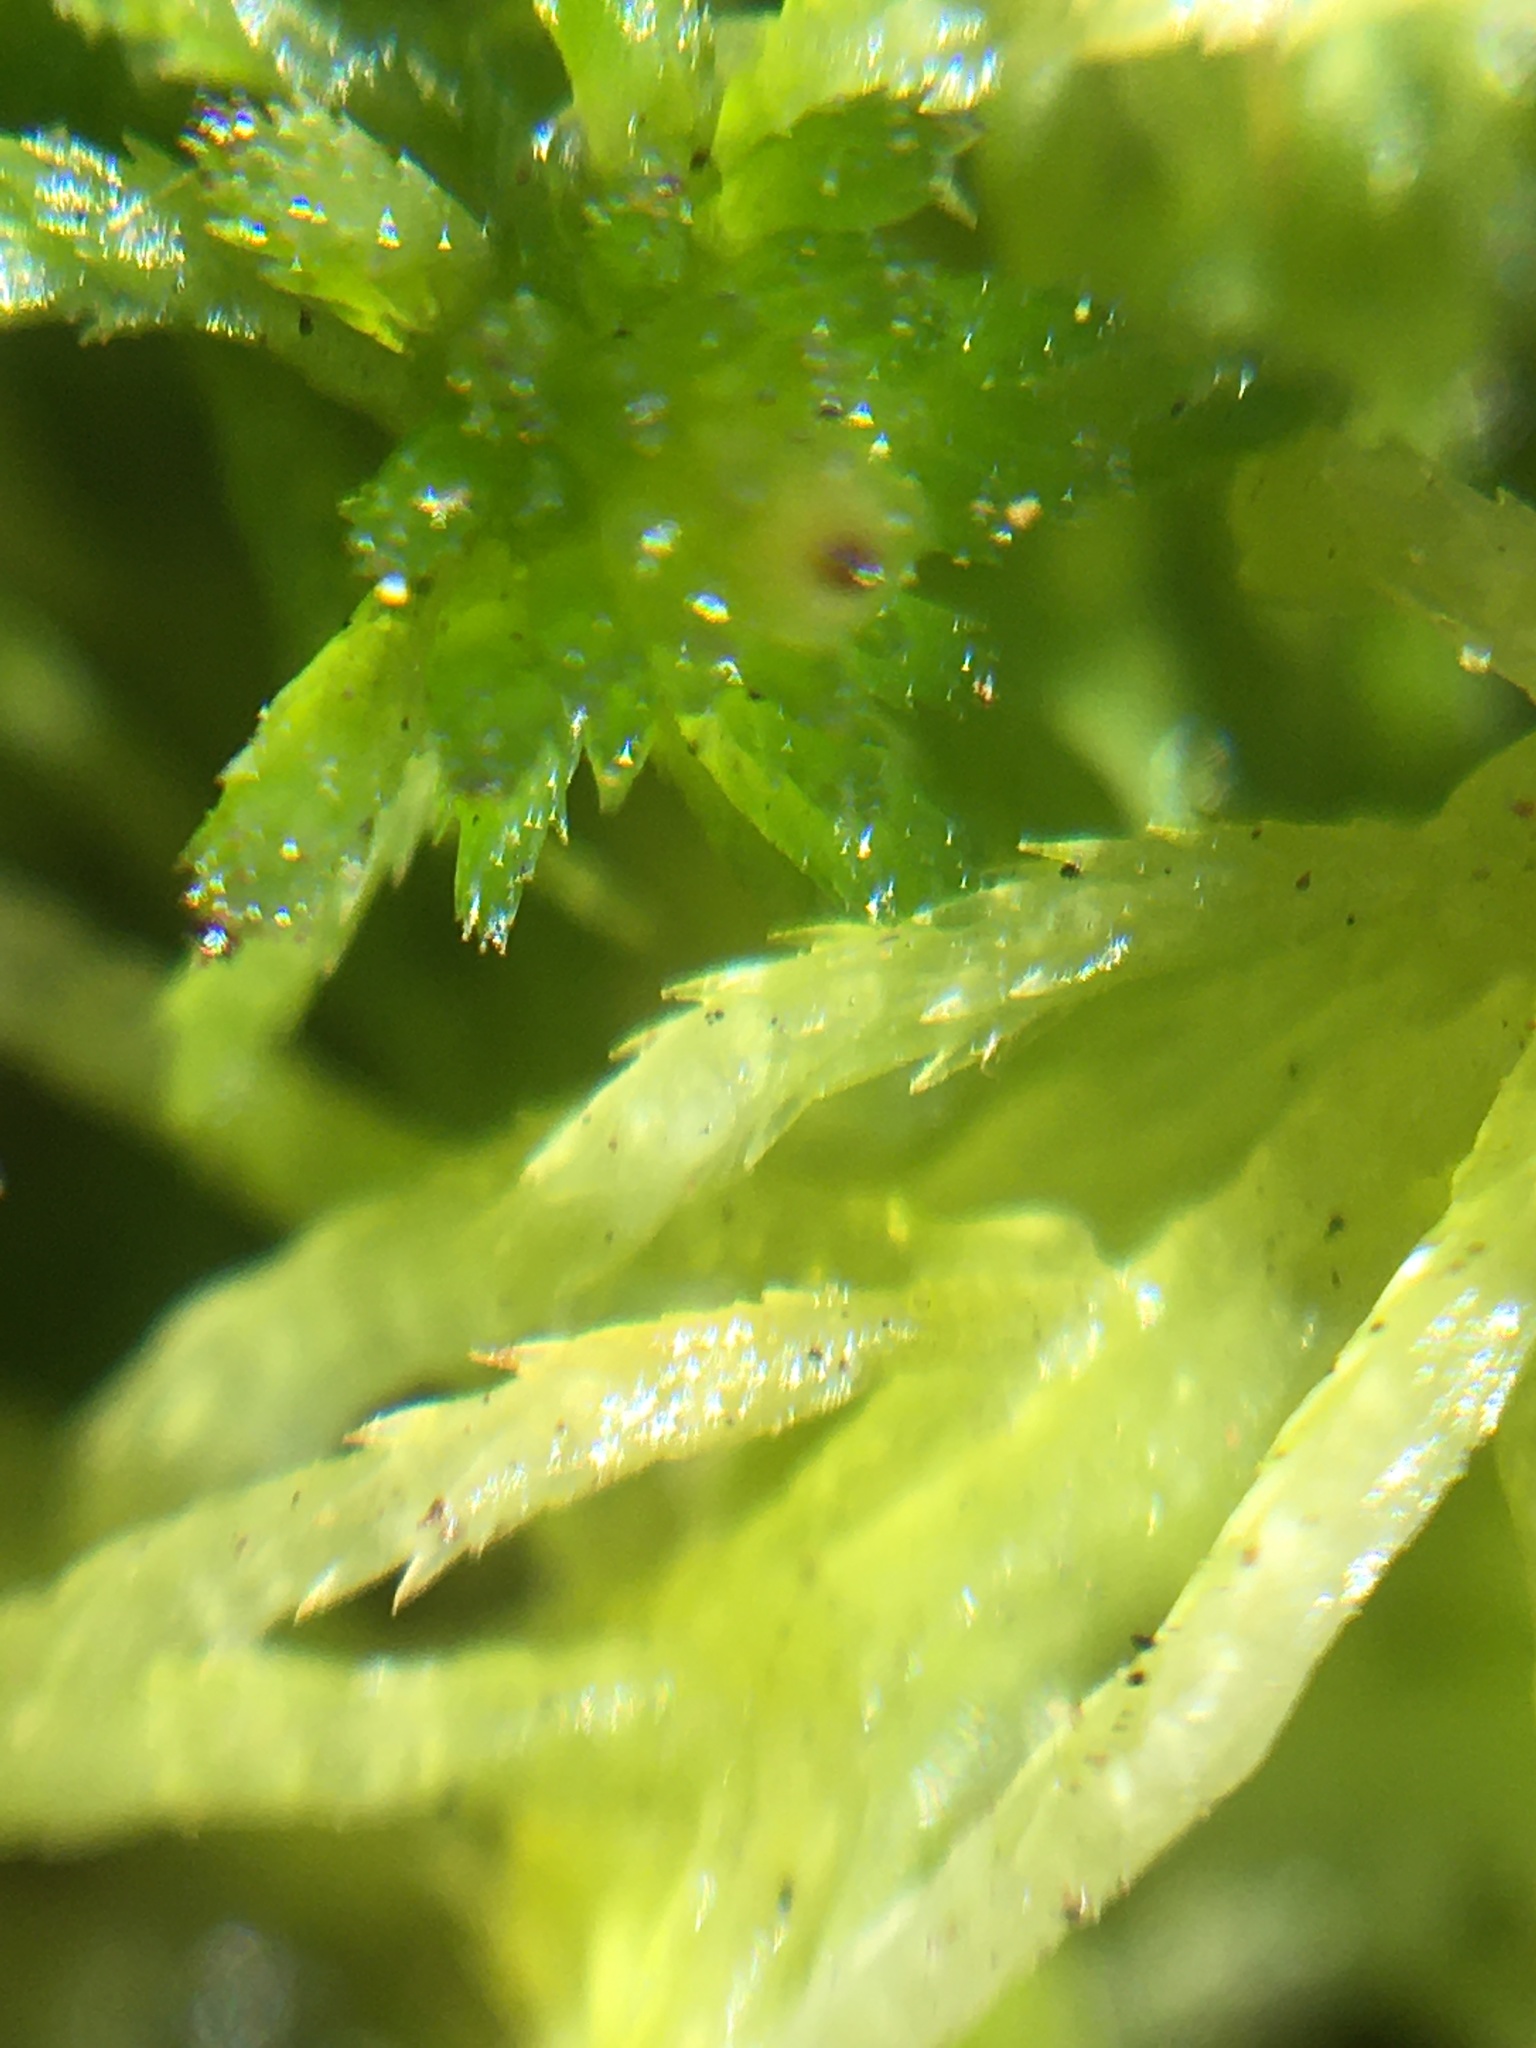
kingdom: Plantae
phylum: Bryophyta
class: Sphagnopsida
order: Sphagnales
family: Sphagnaceae
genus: Sphagnum
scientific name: Sphagnum fimbriatum
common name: Fringed peat moss
